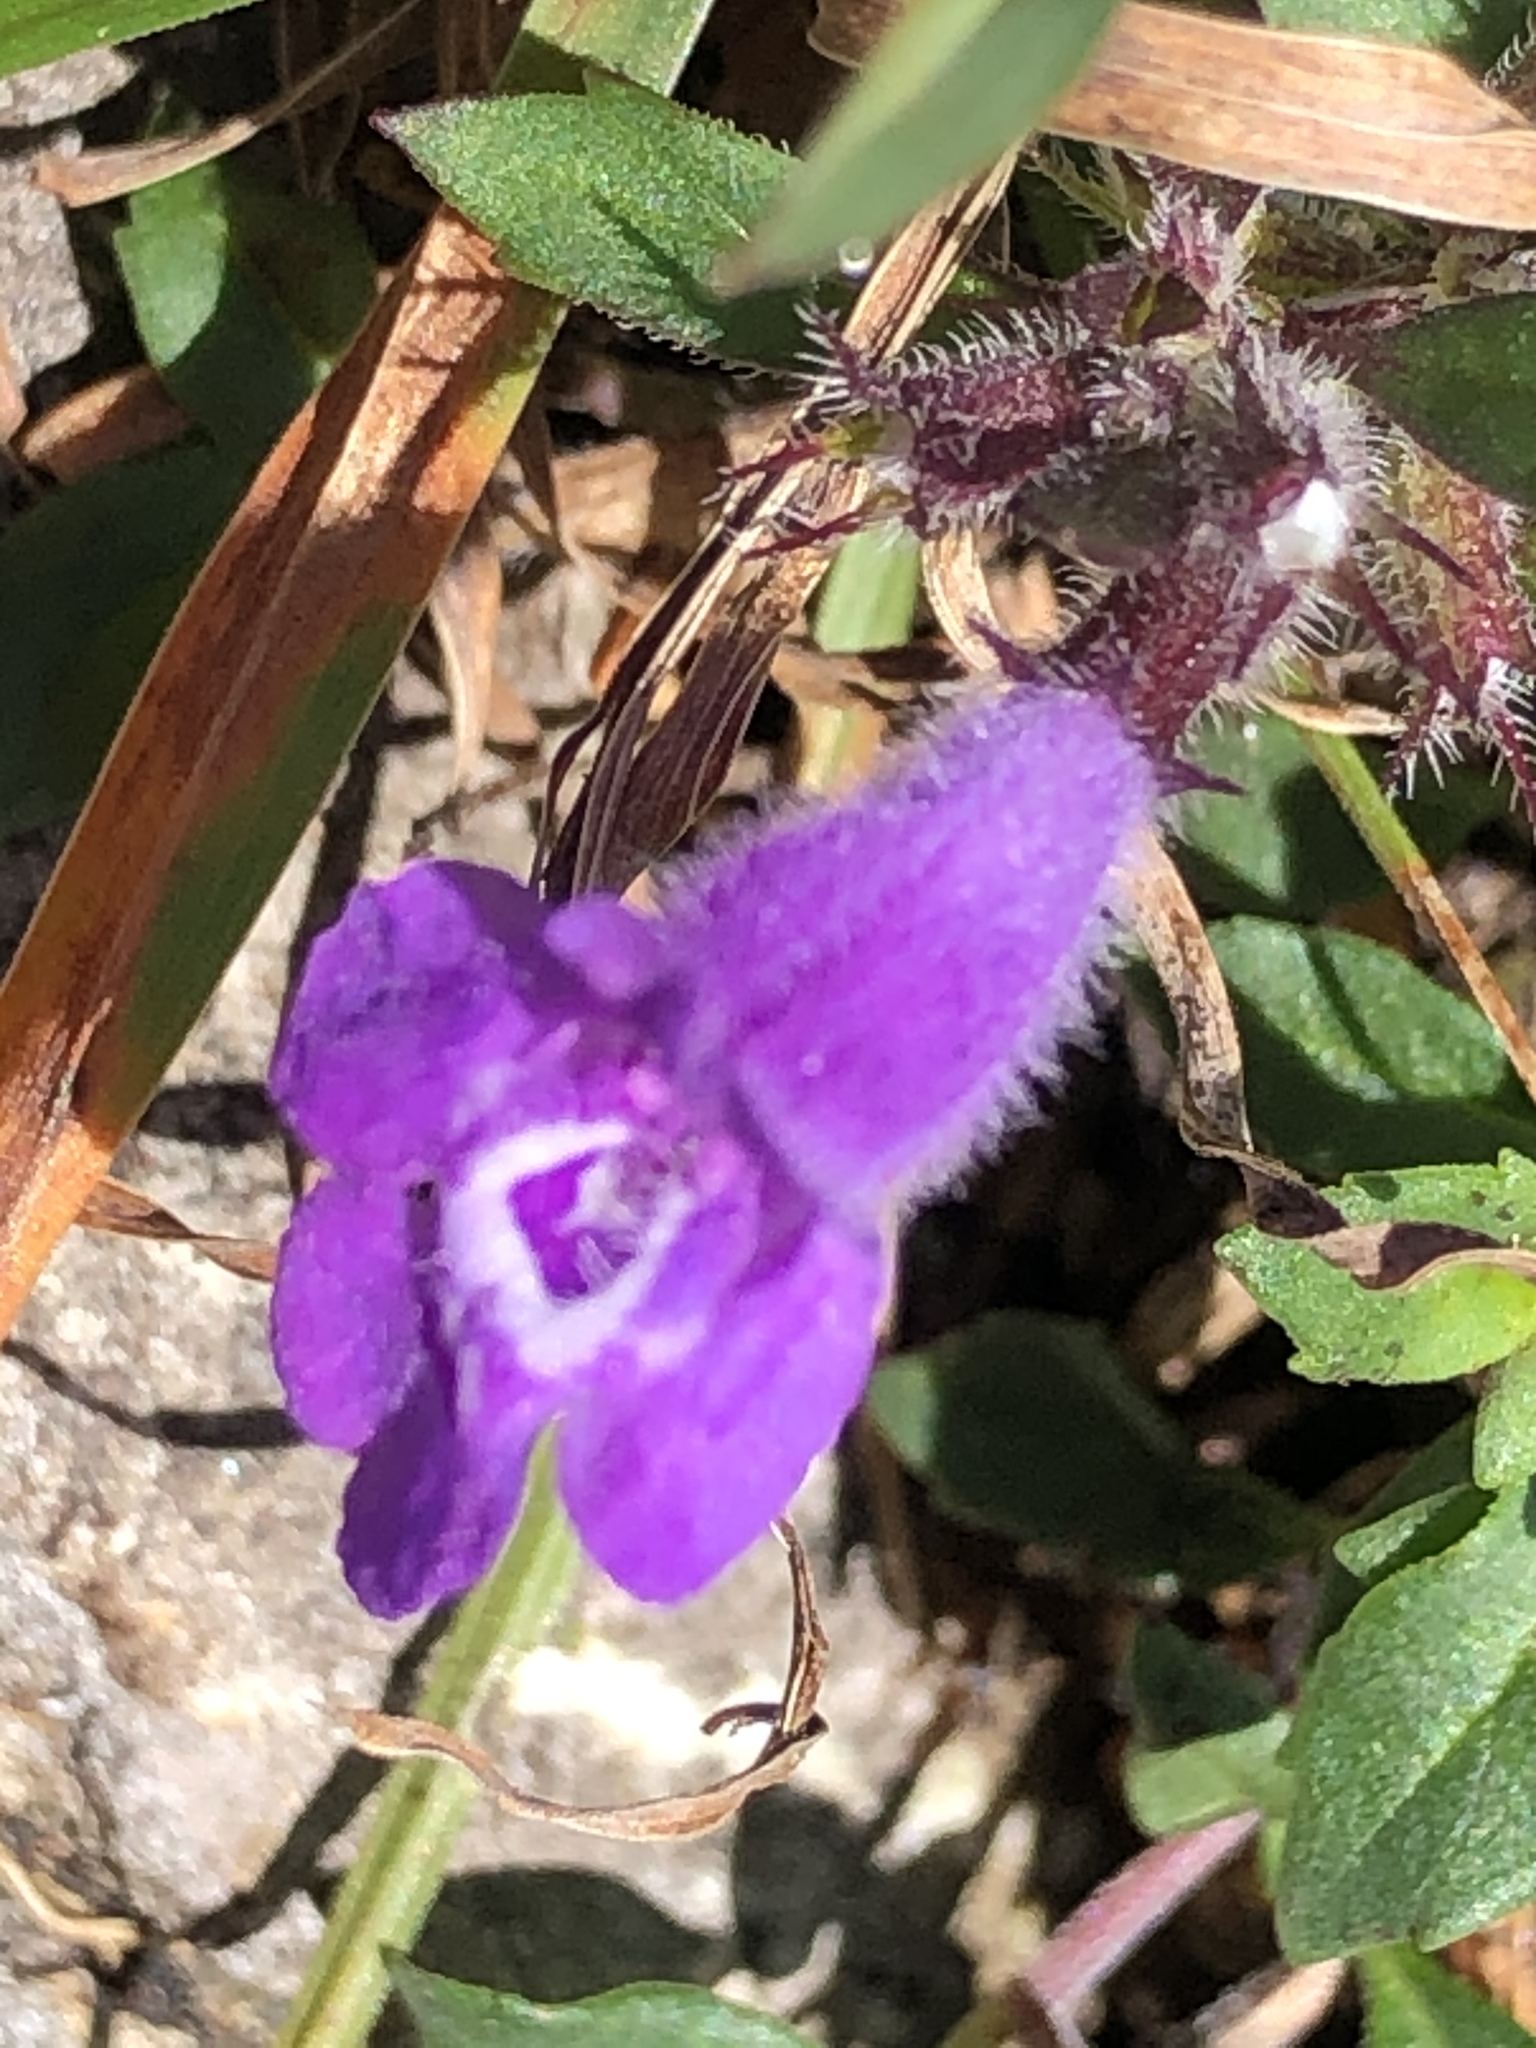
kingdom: Plantae
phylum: Tracheophyta
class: Magnoliopsida
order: Lamiales
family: Lamiaceae
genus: Clinopodium
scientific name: Clinopodium alpinum
